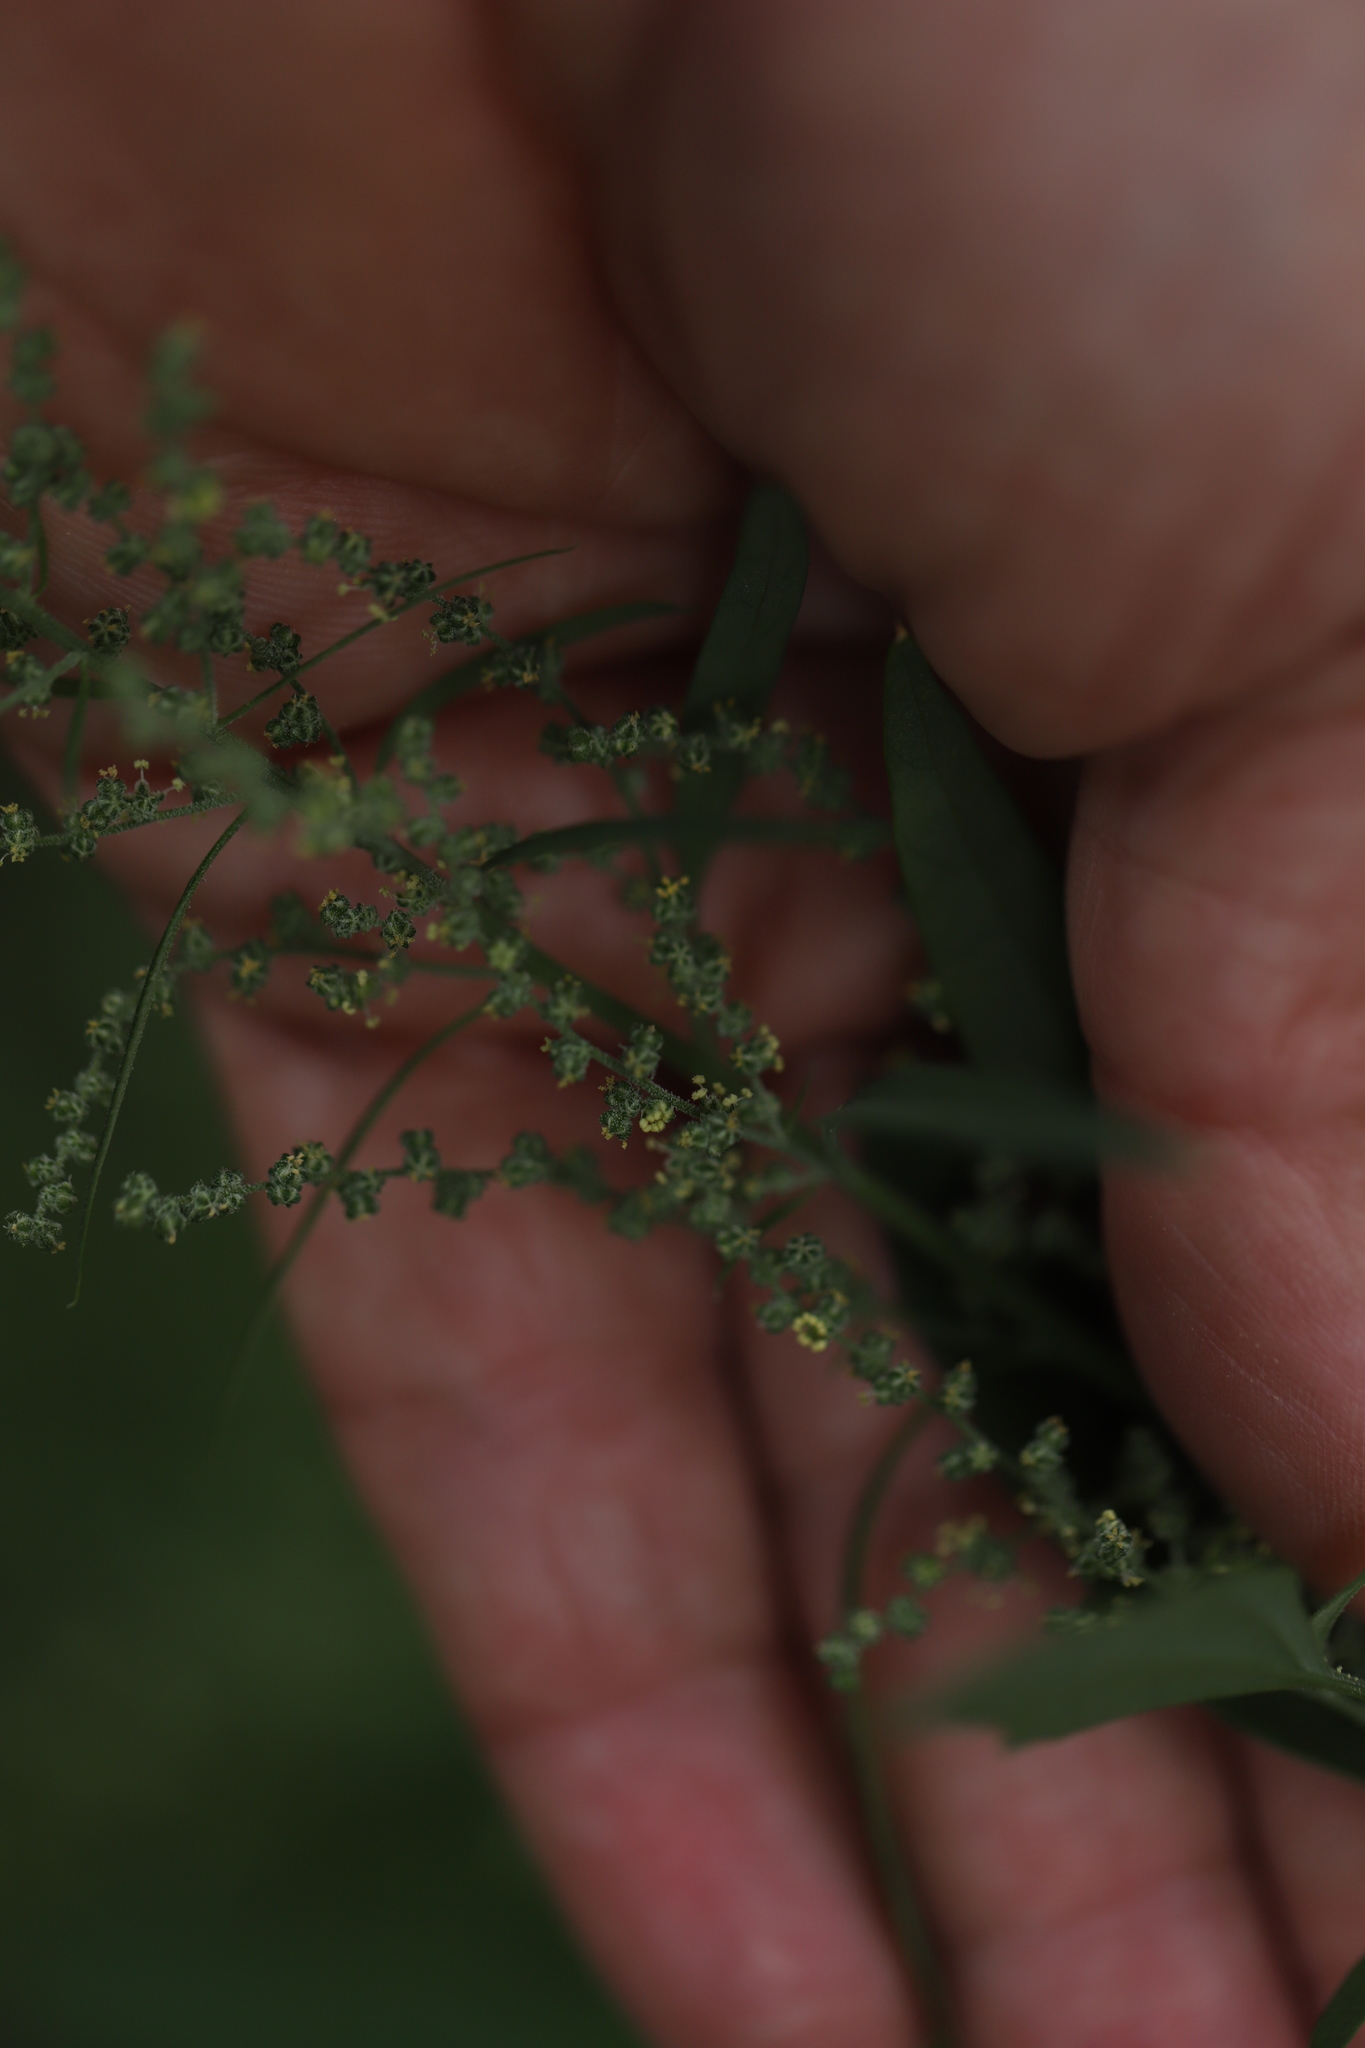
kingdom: Plantae
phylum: Tracheophyta
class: Magnoliopsida
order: Caryophyllales
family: Amaranthaceae
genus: Chenopodium
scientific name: Chenopodium album
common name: Fat-hen
